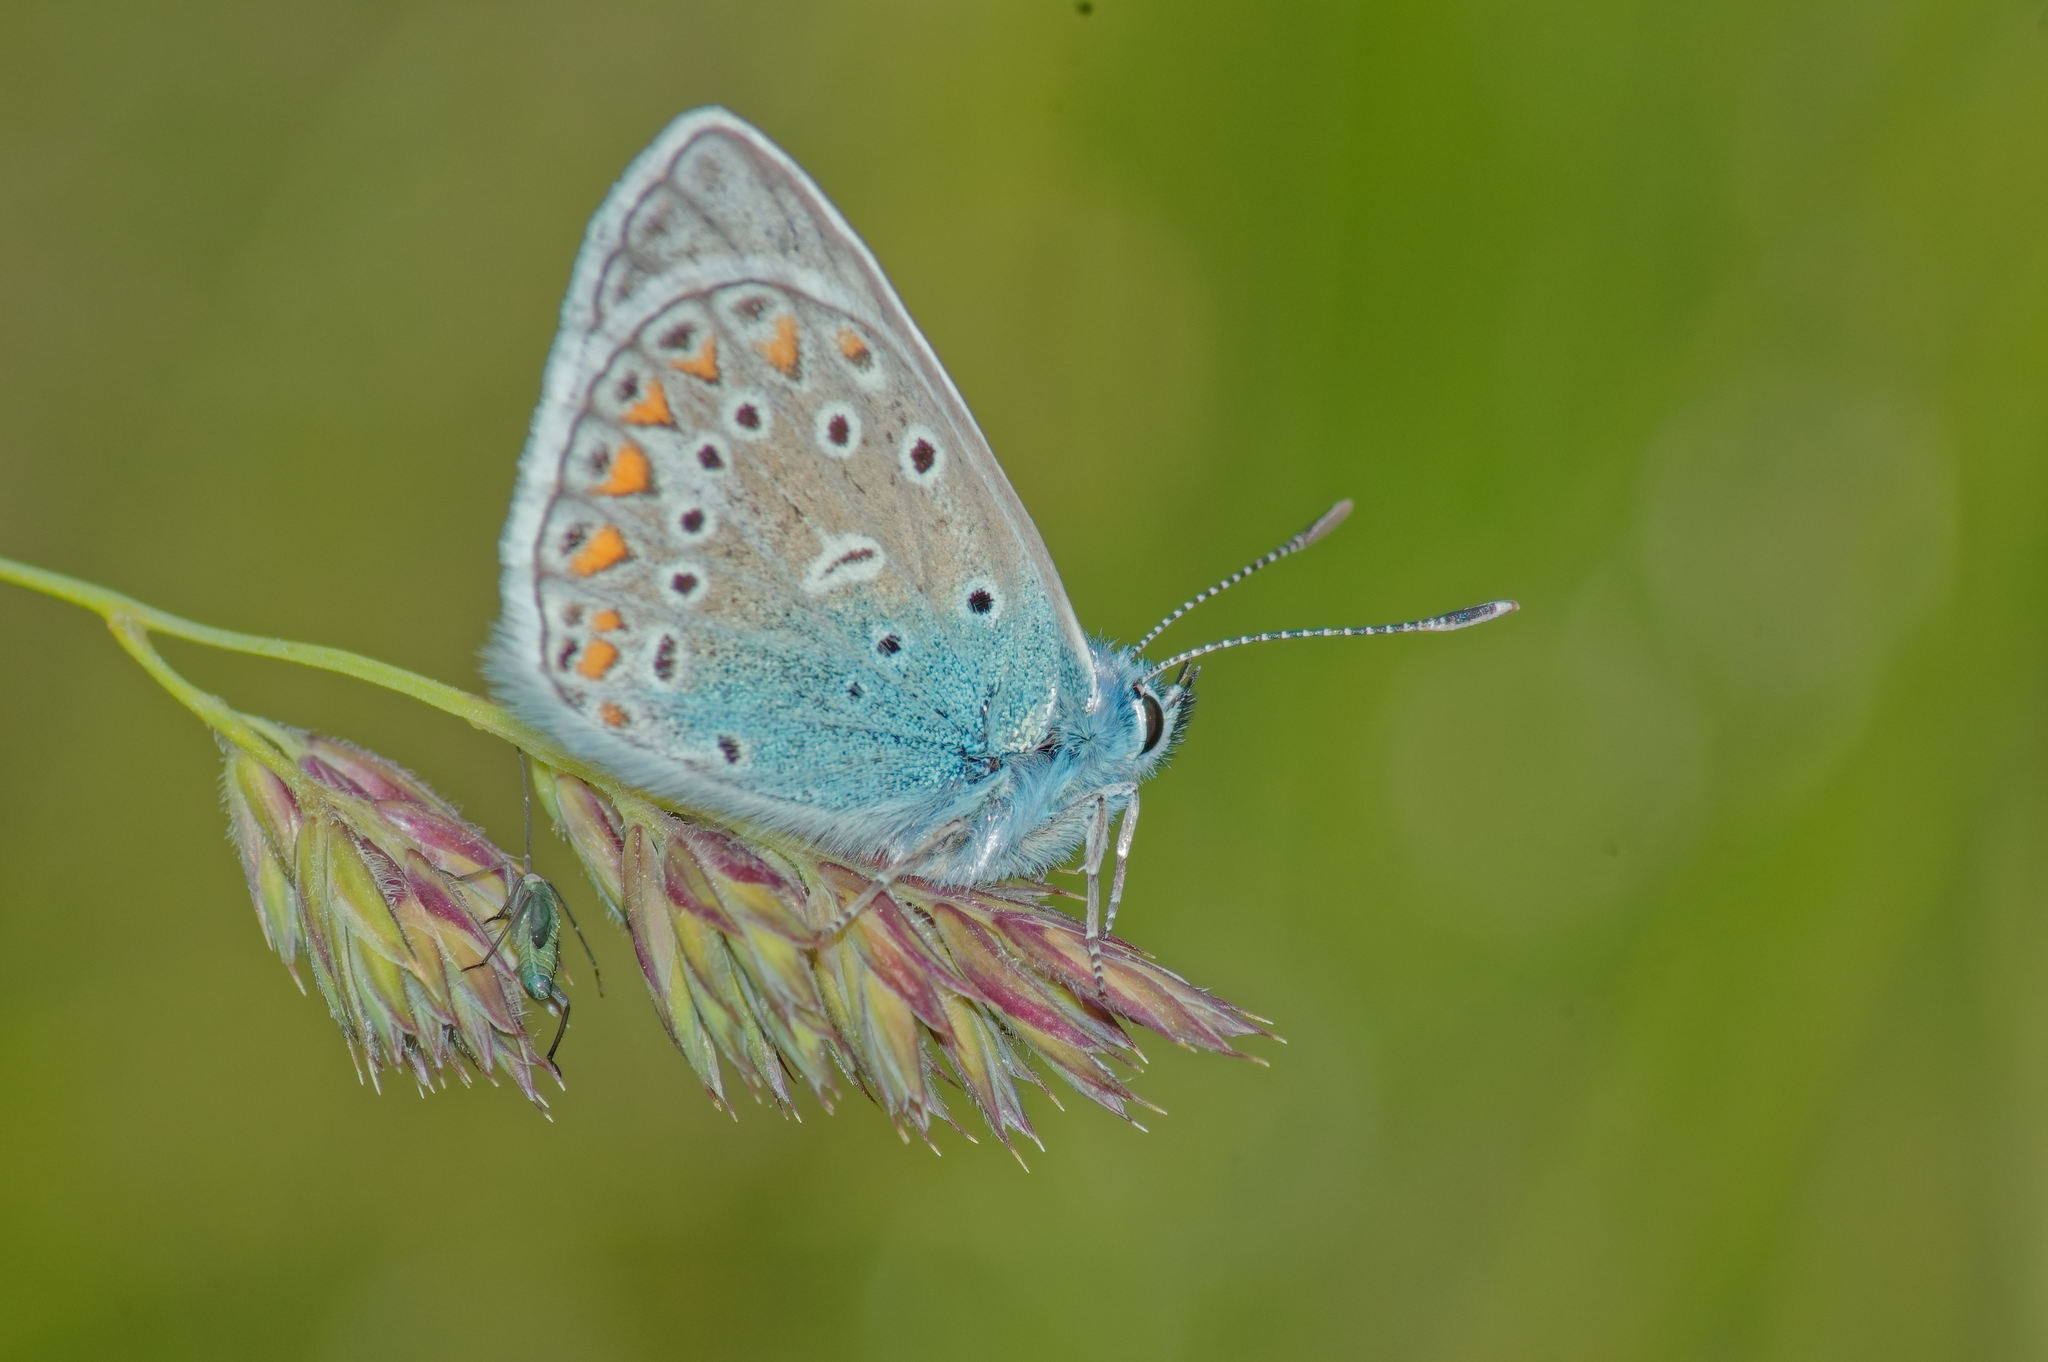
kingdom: Animalia
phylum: Arthropoda
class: Insecta
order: Lepidoptera
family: Lycaenidae
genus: Polyommatus
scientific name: Polyommatus icarus
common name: Common blue
